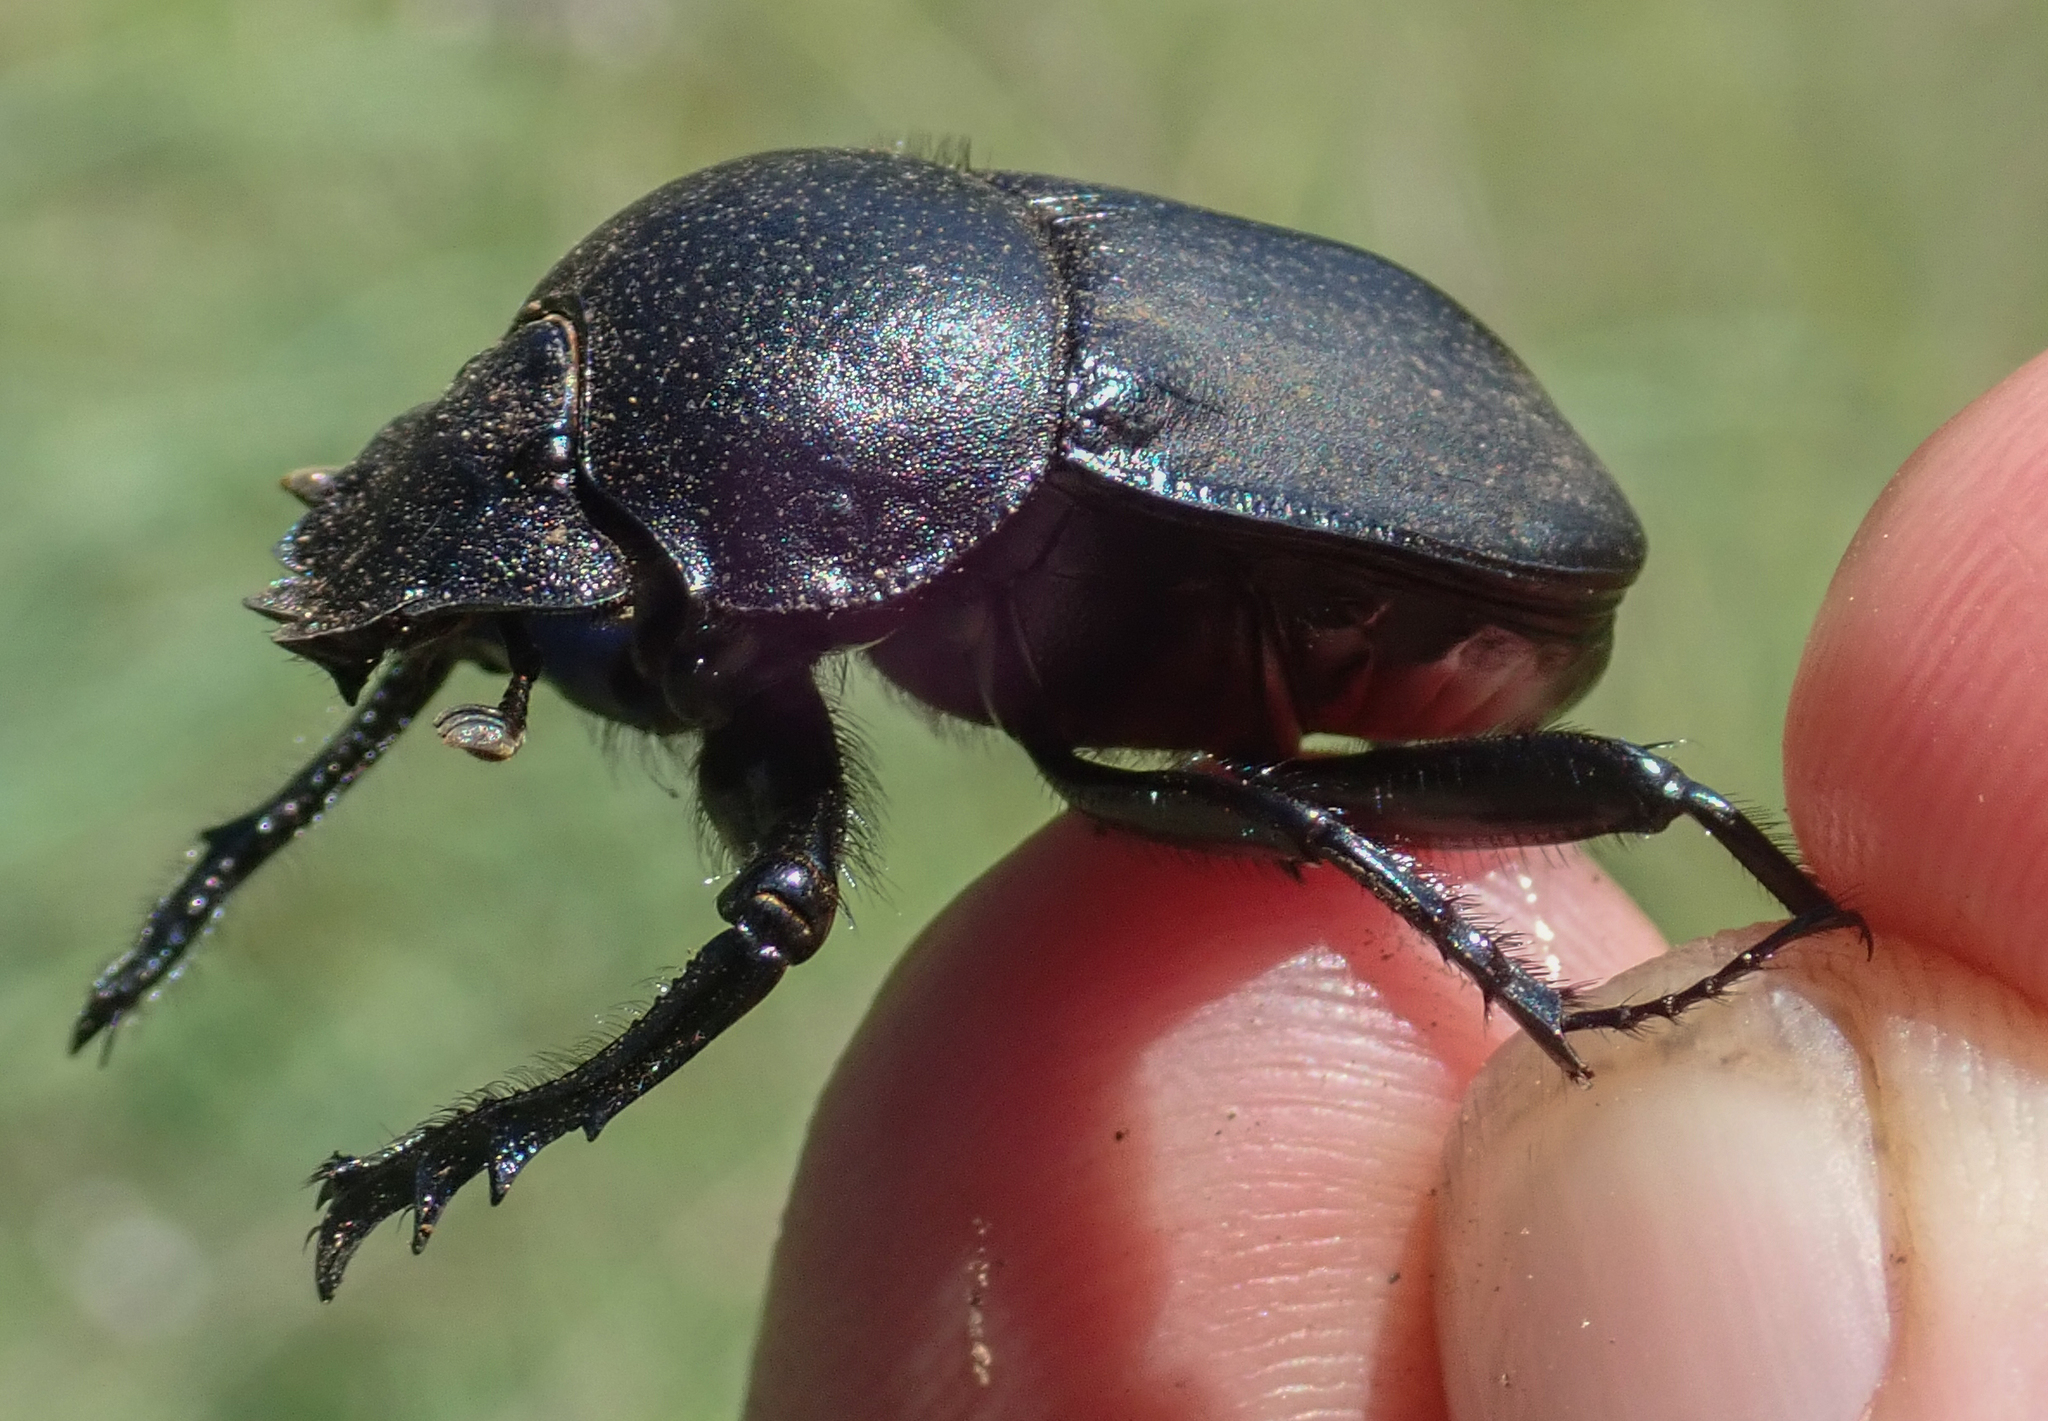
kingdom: Animalia
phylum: Arthropoda
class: Insecta
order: Coleoptera
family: Scarabaeidae
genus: Scarabaeus
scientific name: Scarabaeus westwoodi
